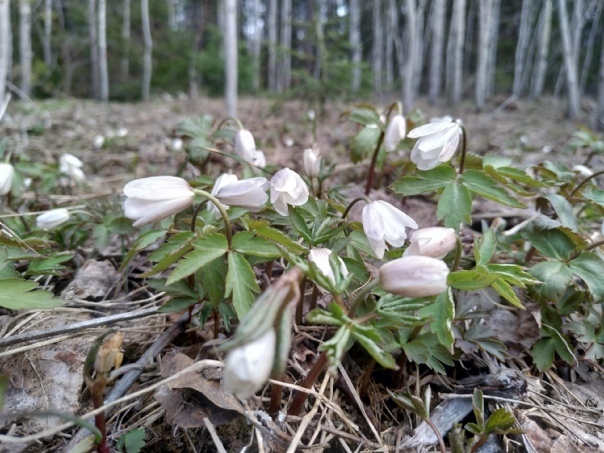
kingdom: Plantae
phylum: Tracheophyta
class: Magnoliopsida
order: Ranunculales
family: Ranunculaceae
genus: Anemone
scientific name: Anemone altaica
